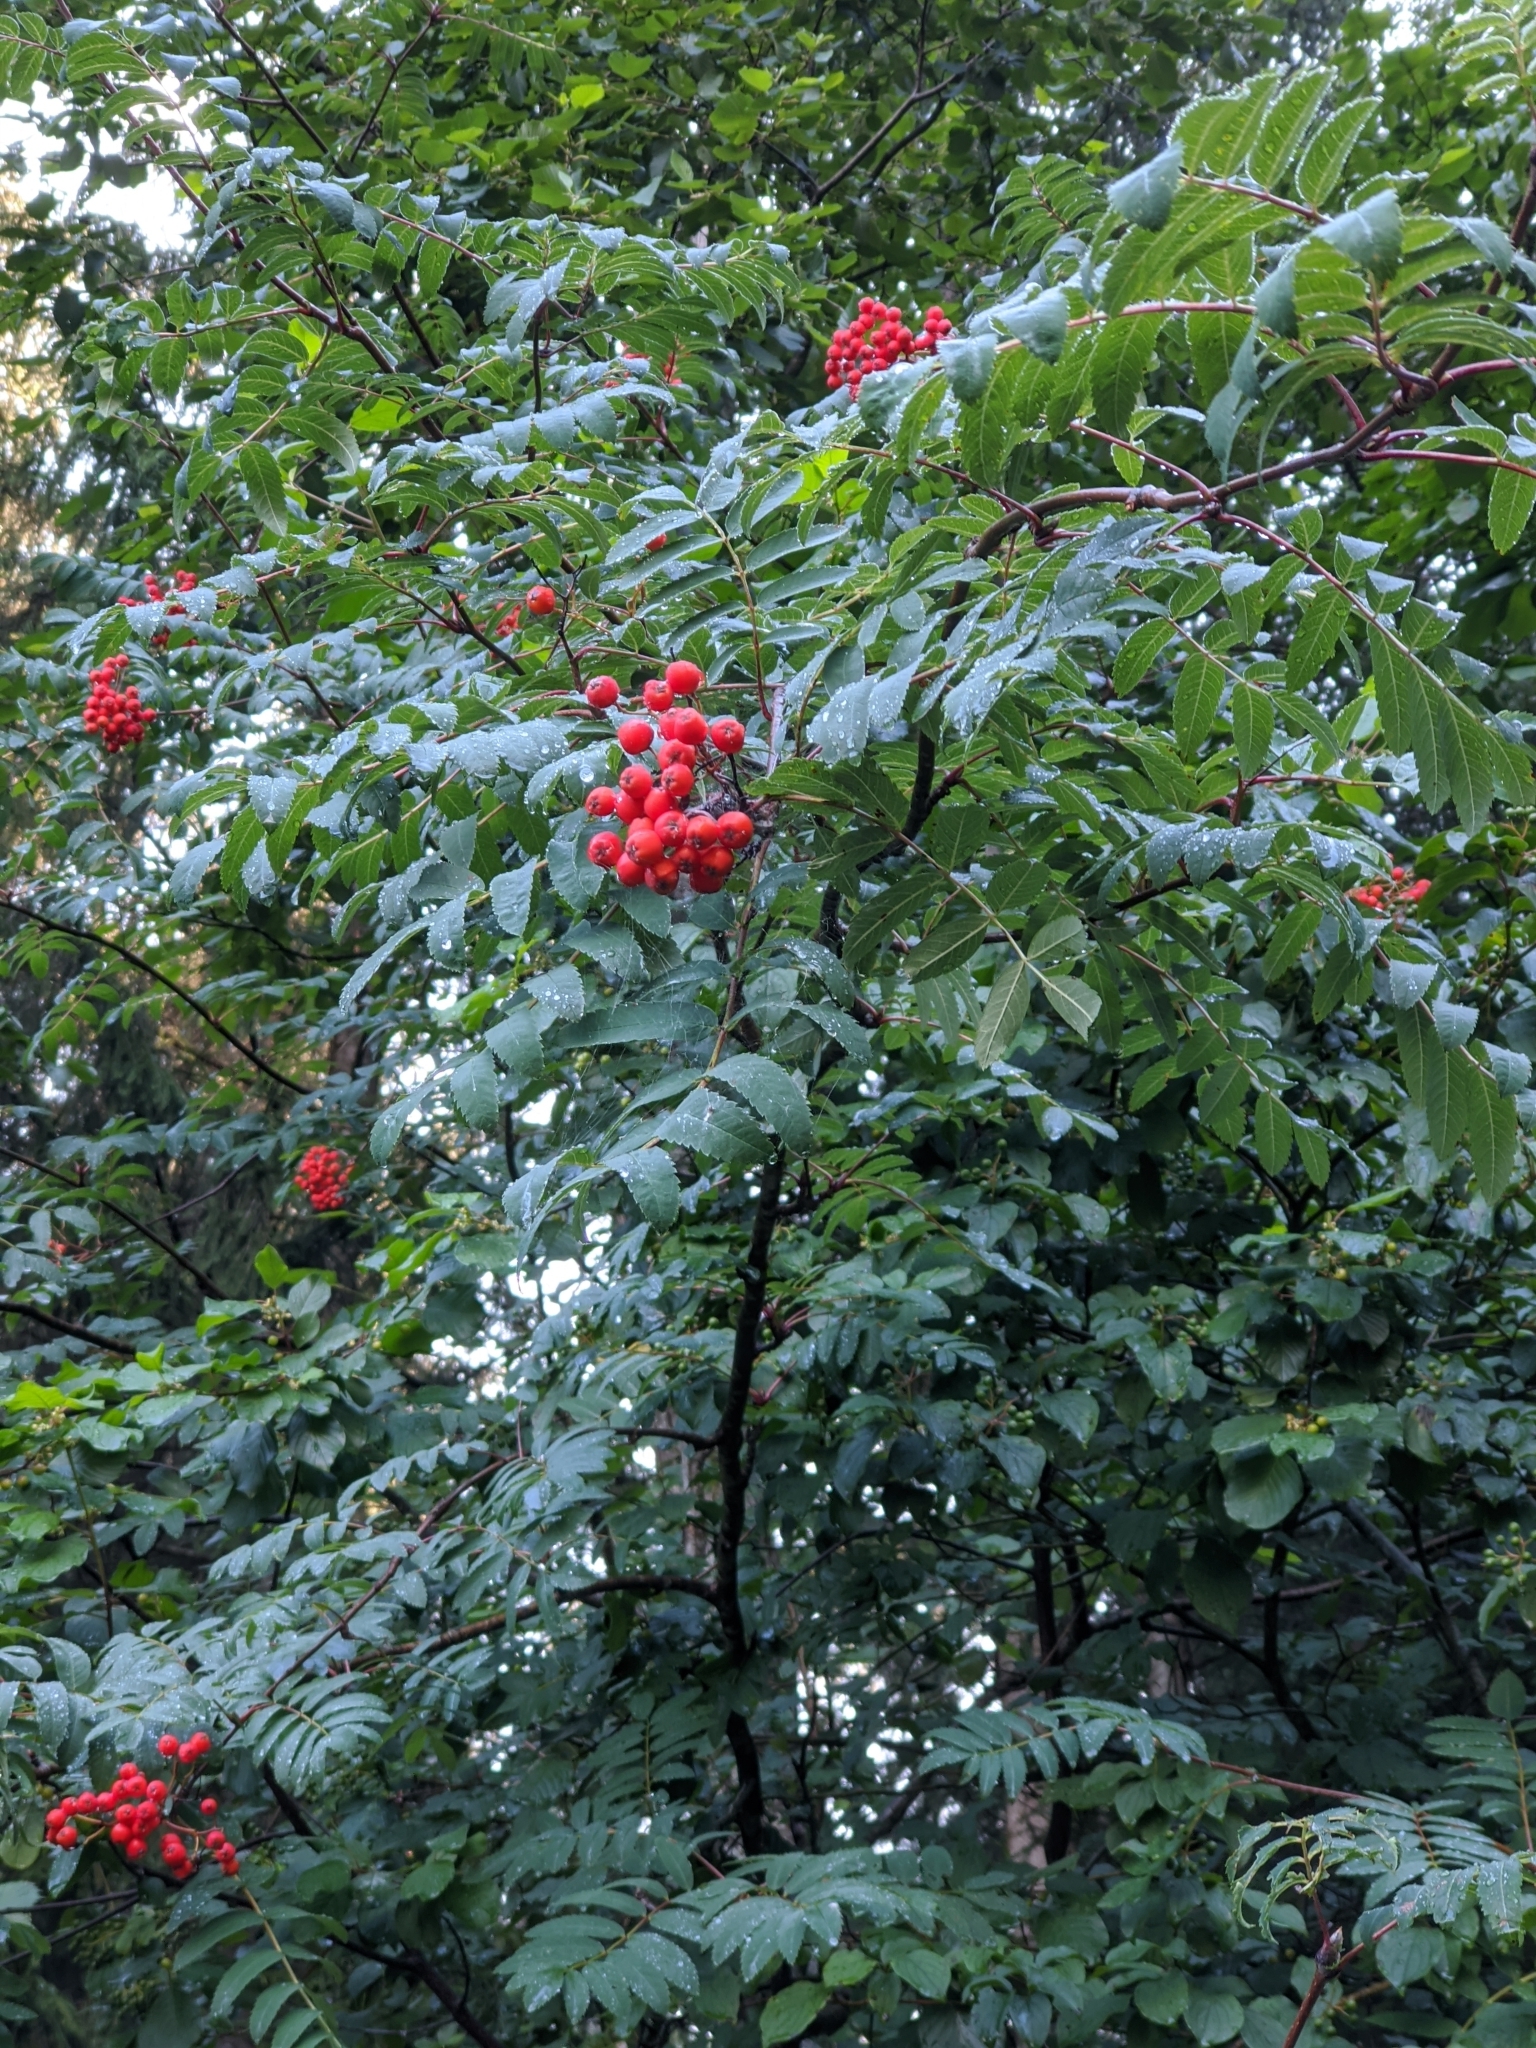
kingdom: Plantae
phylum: Tracheophyta
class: Magnoliopsida
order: Rosales
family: Rosaceae
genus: Sorbus
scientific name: Sorbus aucuparia
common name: Rowan
